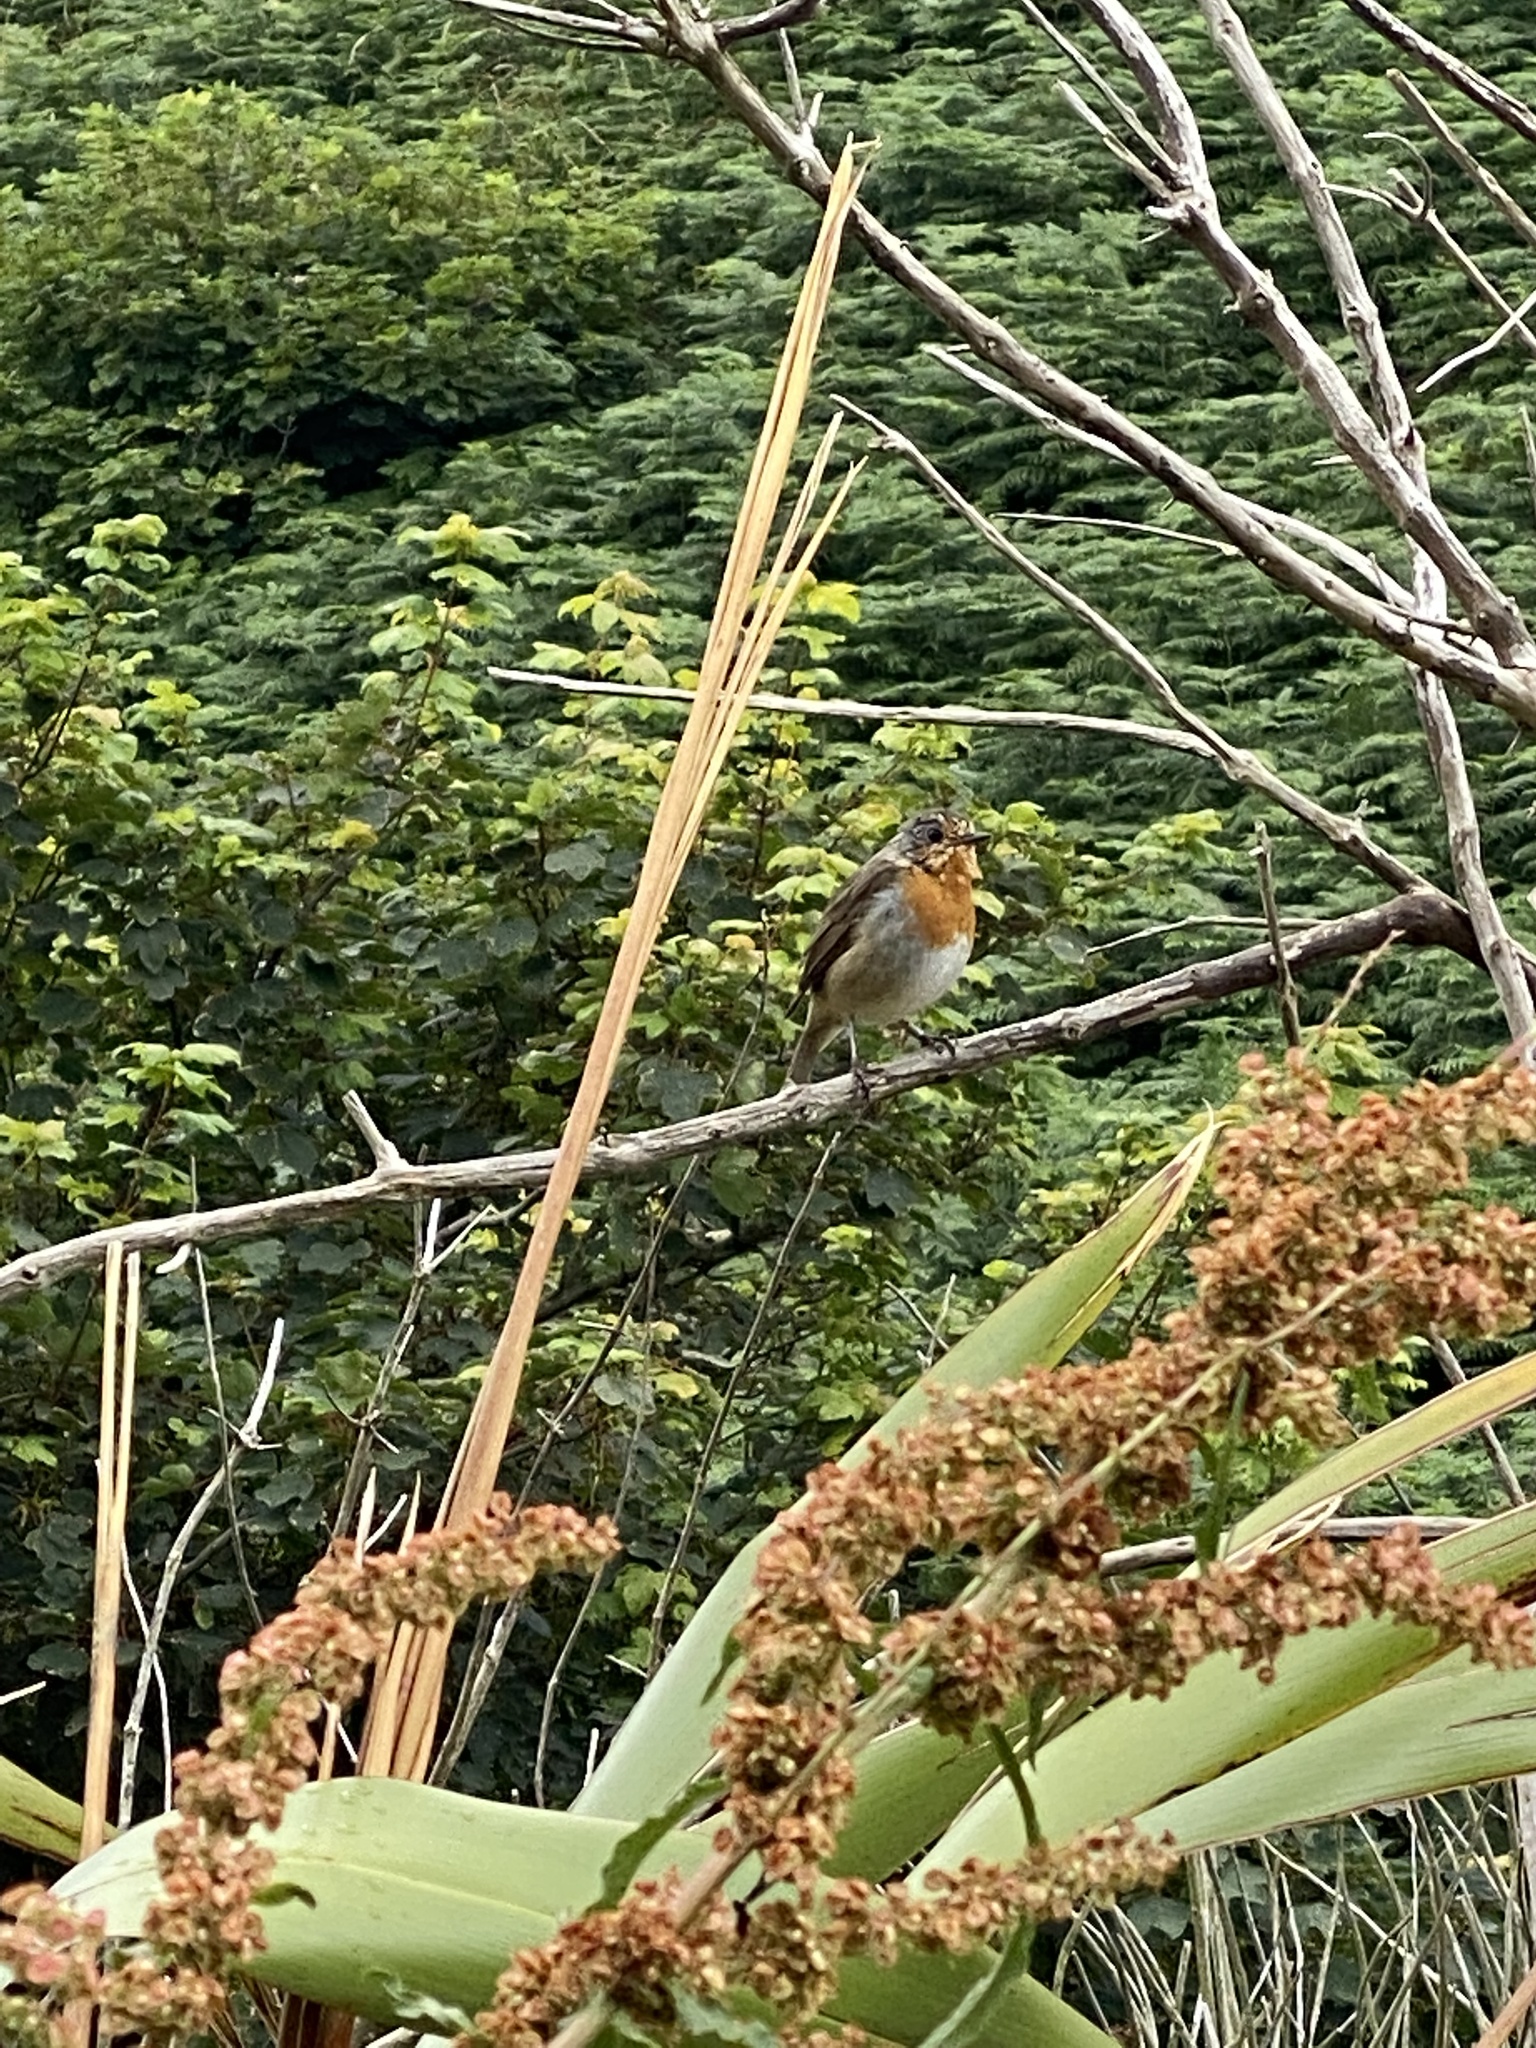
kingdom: Animalia
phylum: Chordata
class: Aves
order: Passeriformes
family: Muscicapidae
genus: Erithacus
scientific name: Erithacus rubecula
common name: European robin
